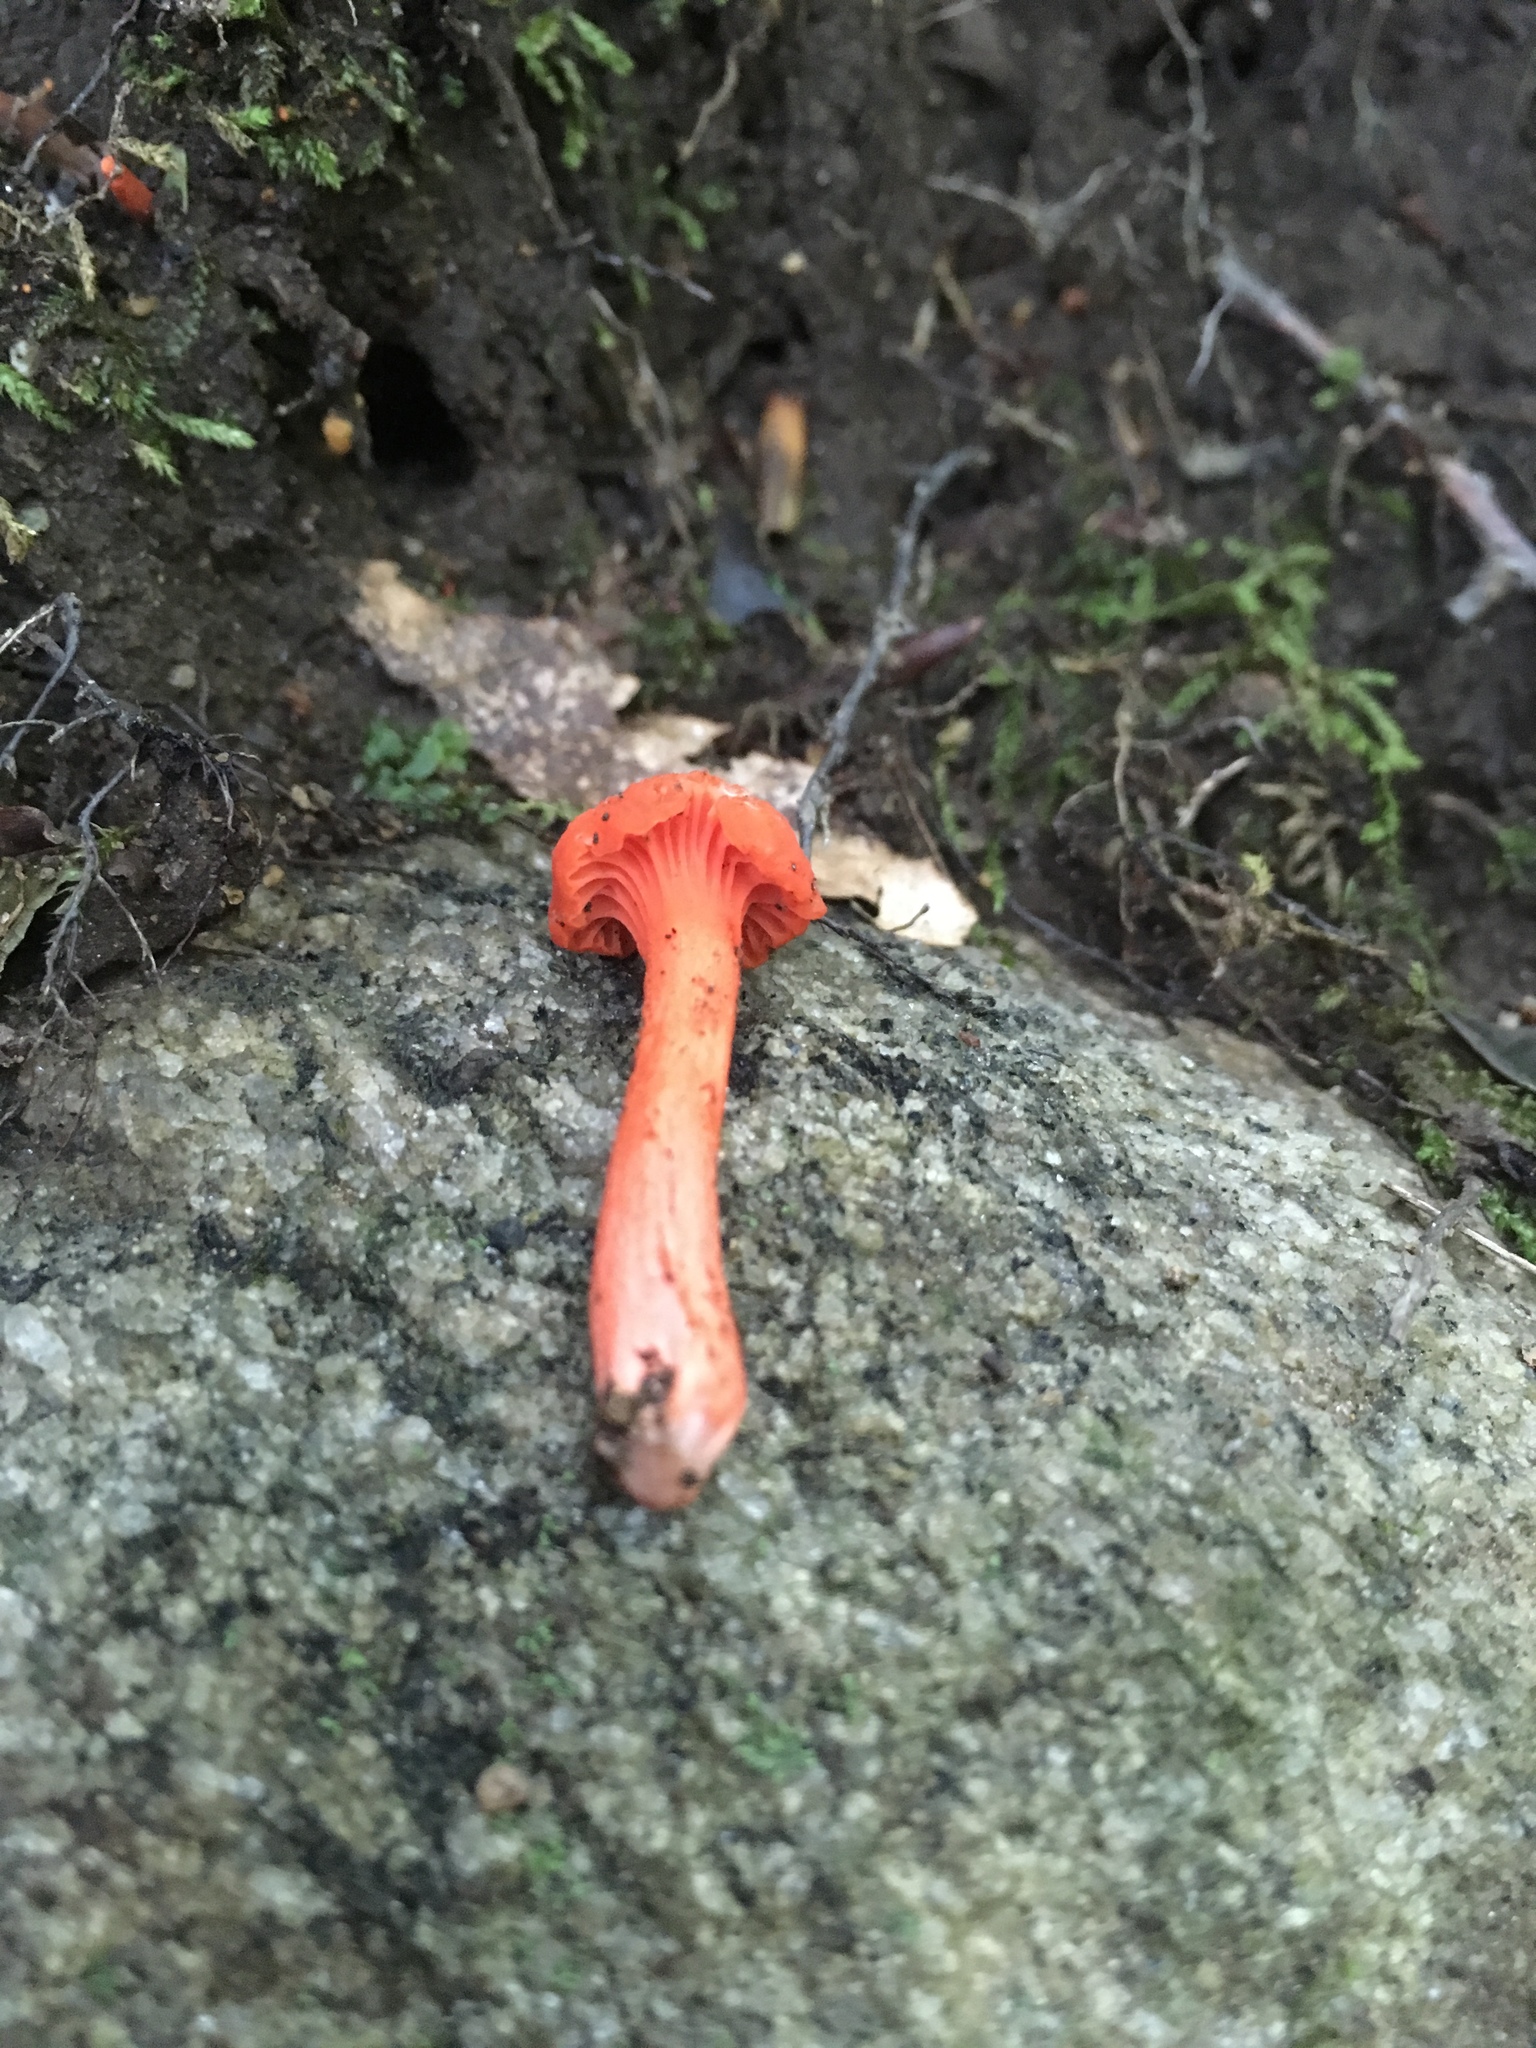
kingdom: Fungi
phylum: Basidiomycota
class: Agaricomycetes
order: Cantharellales
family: Hydnaceae
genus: Cantharellus
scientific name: Cantharellus cinnabarinus
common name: Cinnabar chanterelle
